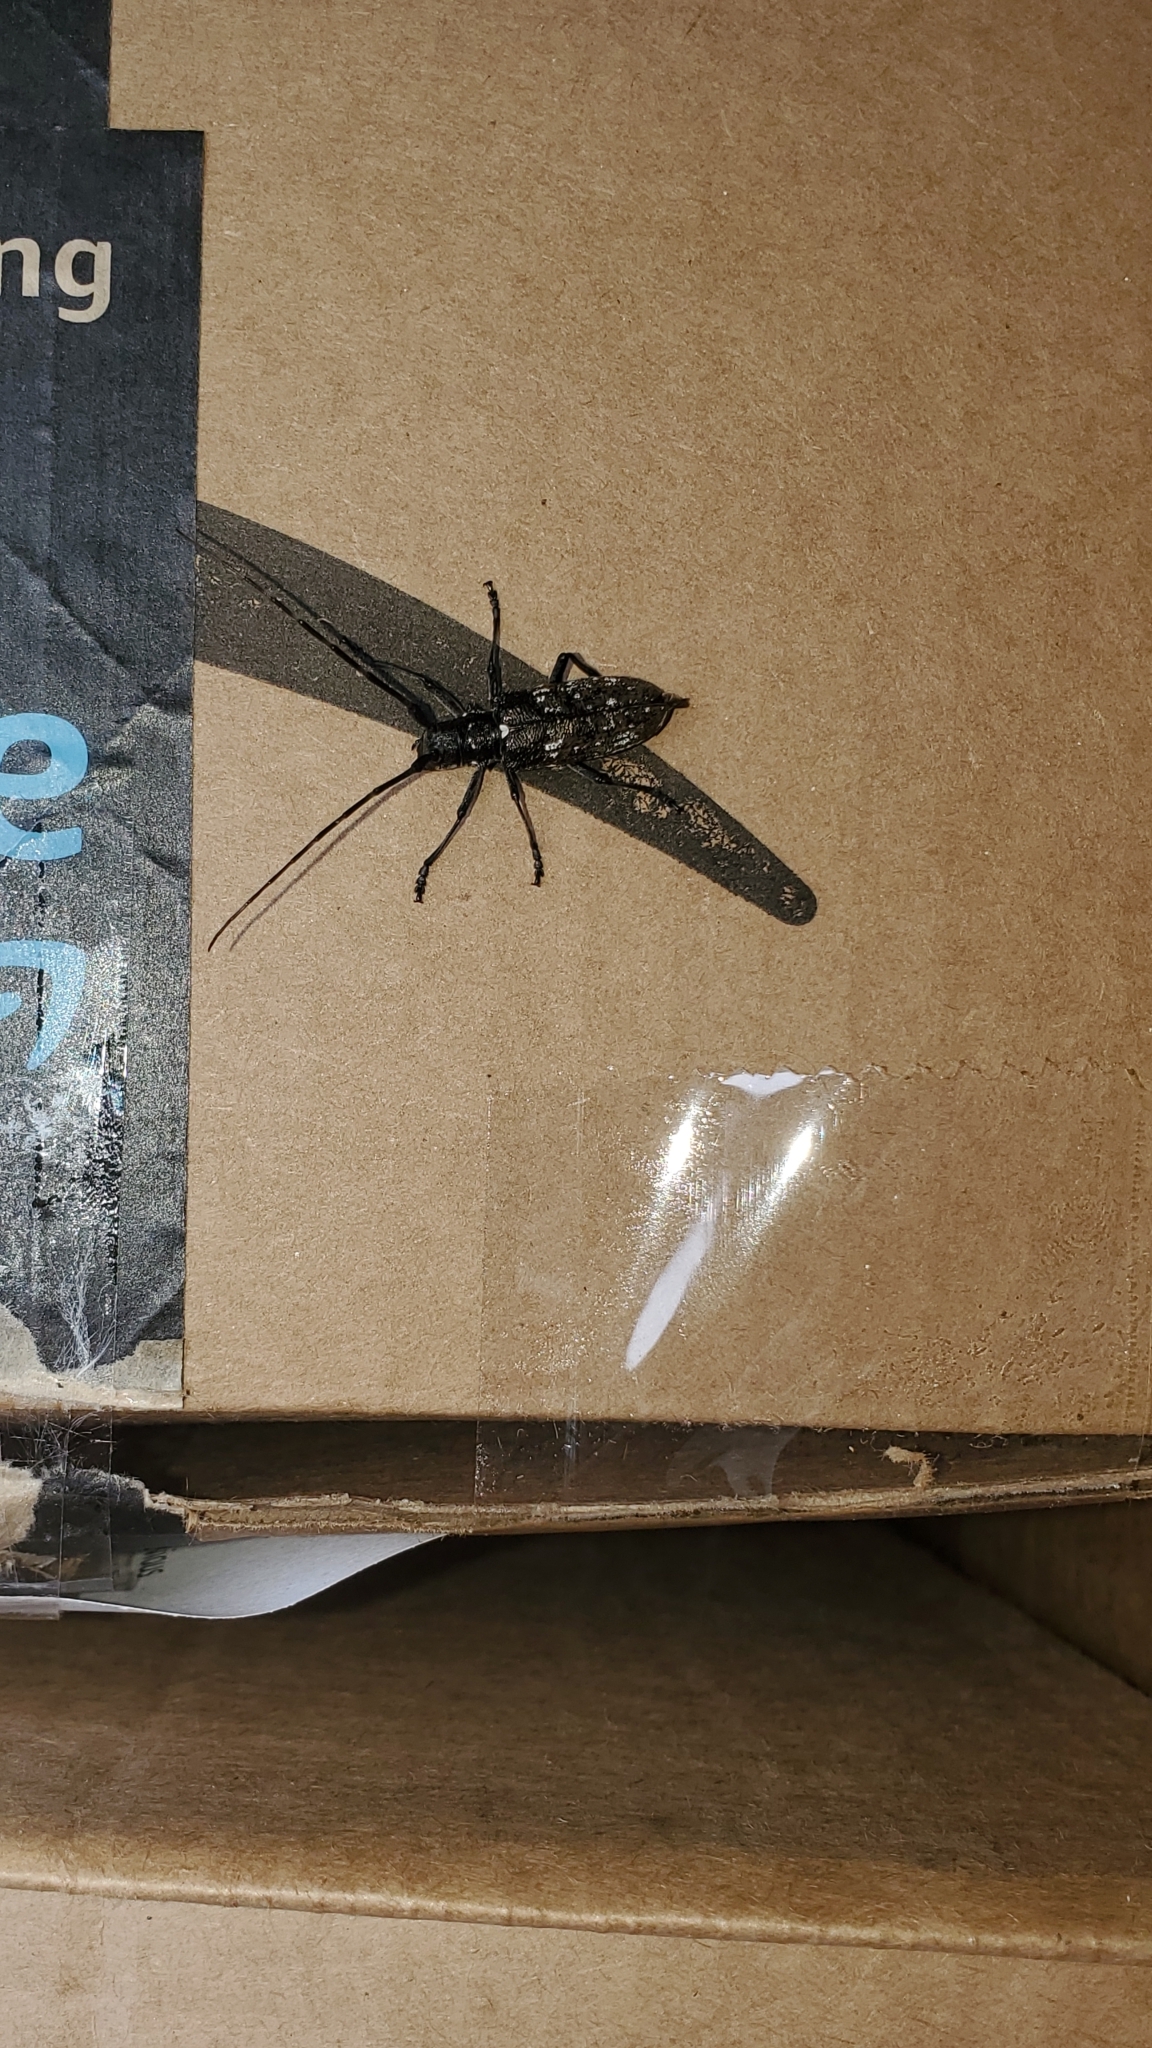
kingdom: Animalia
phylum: Arthropoda
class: Insecta
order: Coleoptera
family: Cerambycidae
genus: Monochamus
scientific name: Monochamus scutellatus
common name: White-spotted sawyer beetle
